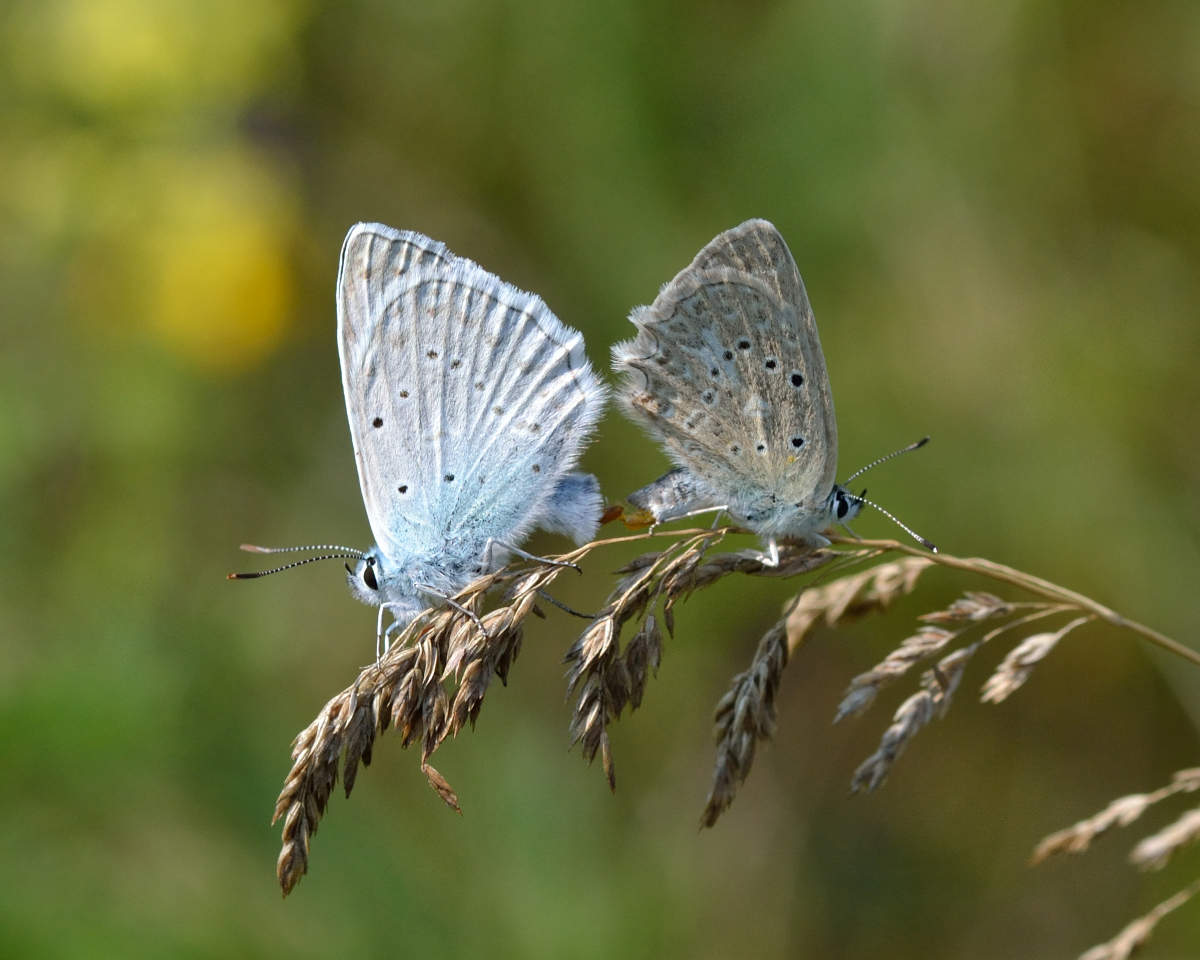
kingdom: Animalia
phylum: Arthropoda
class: Insecta
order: Lepidoptera
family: Lycaenidae
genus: Polyommatus
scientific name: Polyommatus daphnis
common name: Meleager's blue
